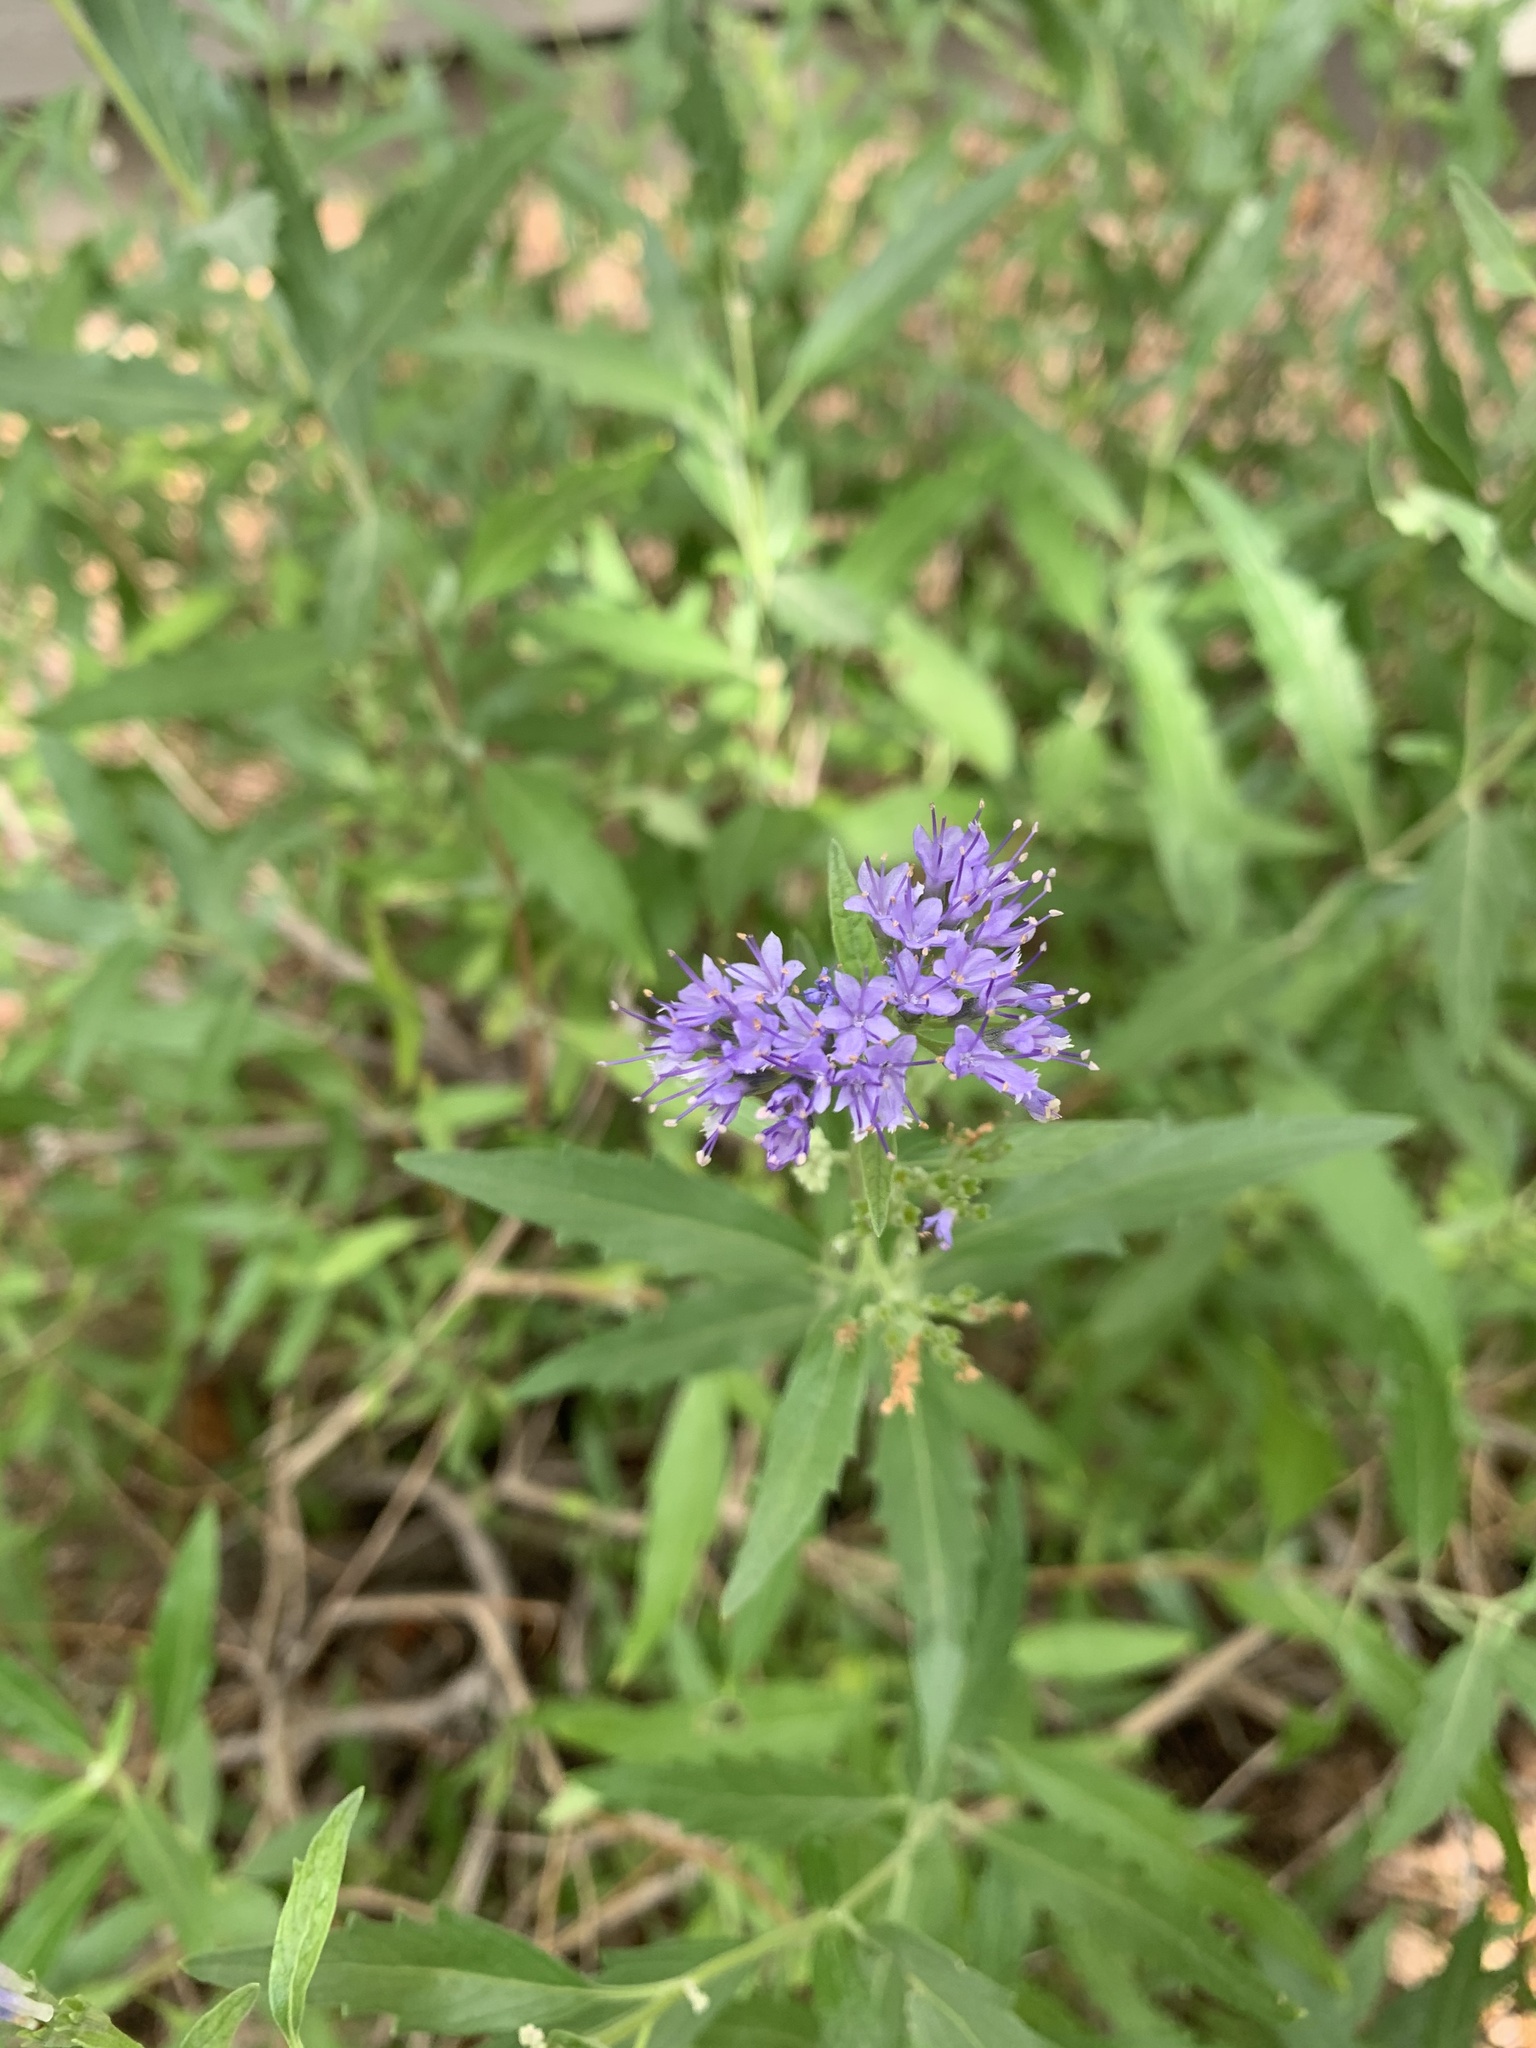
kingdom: Plantae
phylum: Tracheophyta
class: Magnoliopsida
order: Brassicales
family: Cleomaceae
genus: Cleomella
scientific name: Cleomella serrulata
